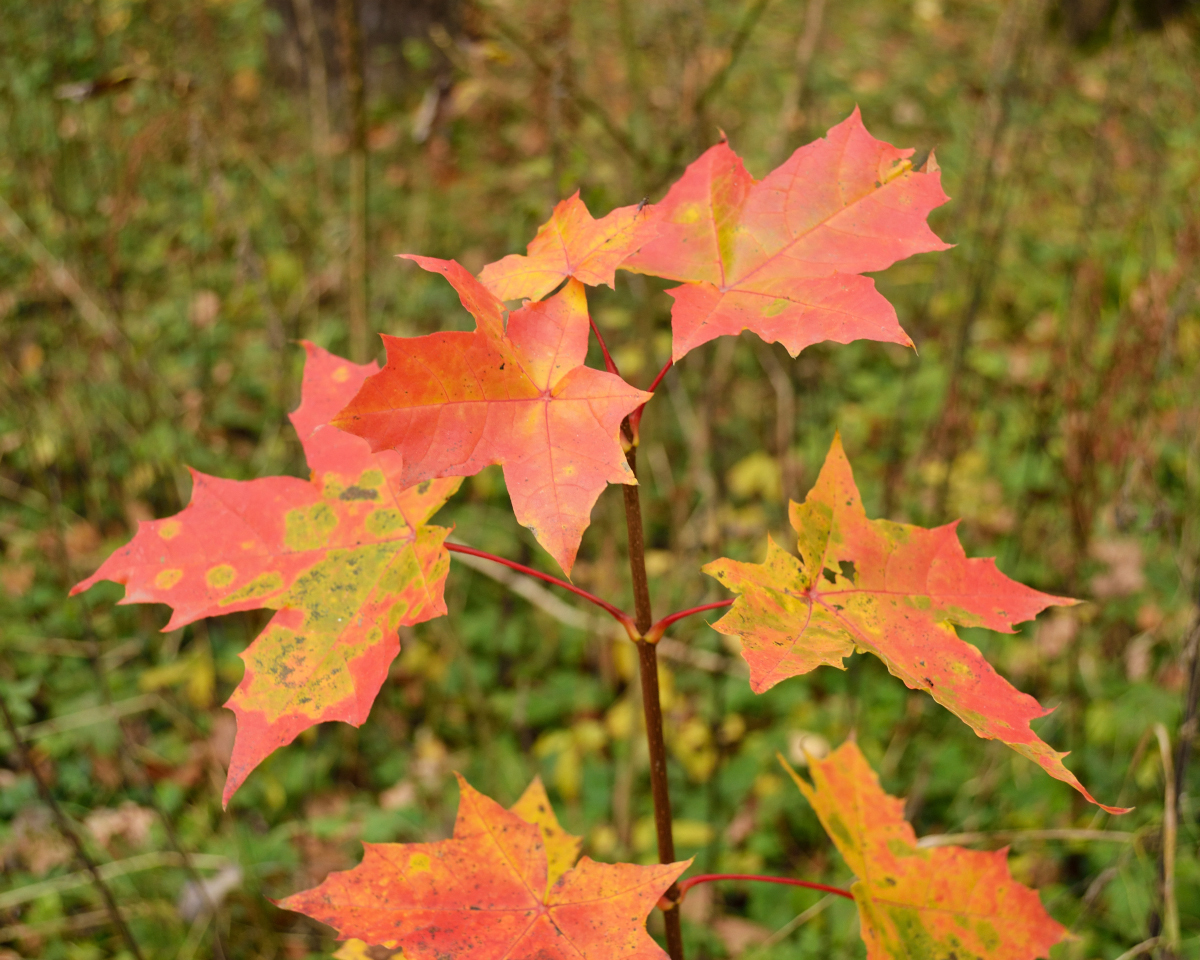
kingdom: Plantae
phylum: Tracheophyta
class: Magnoliopsida
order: Sapindales
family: Sapindaceae
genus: Acer
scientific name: Acer platanoides
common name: Norway maple
